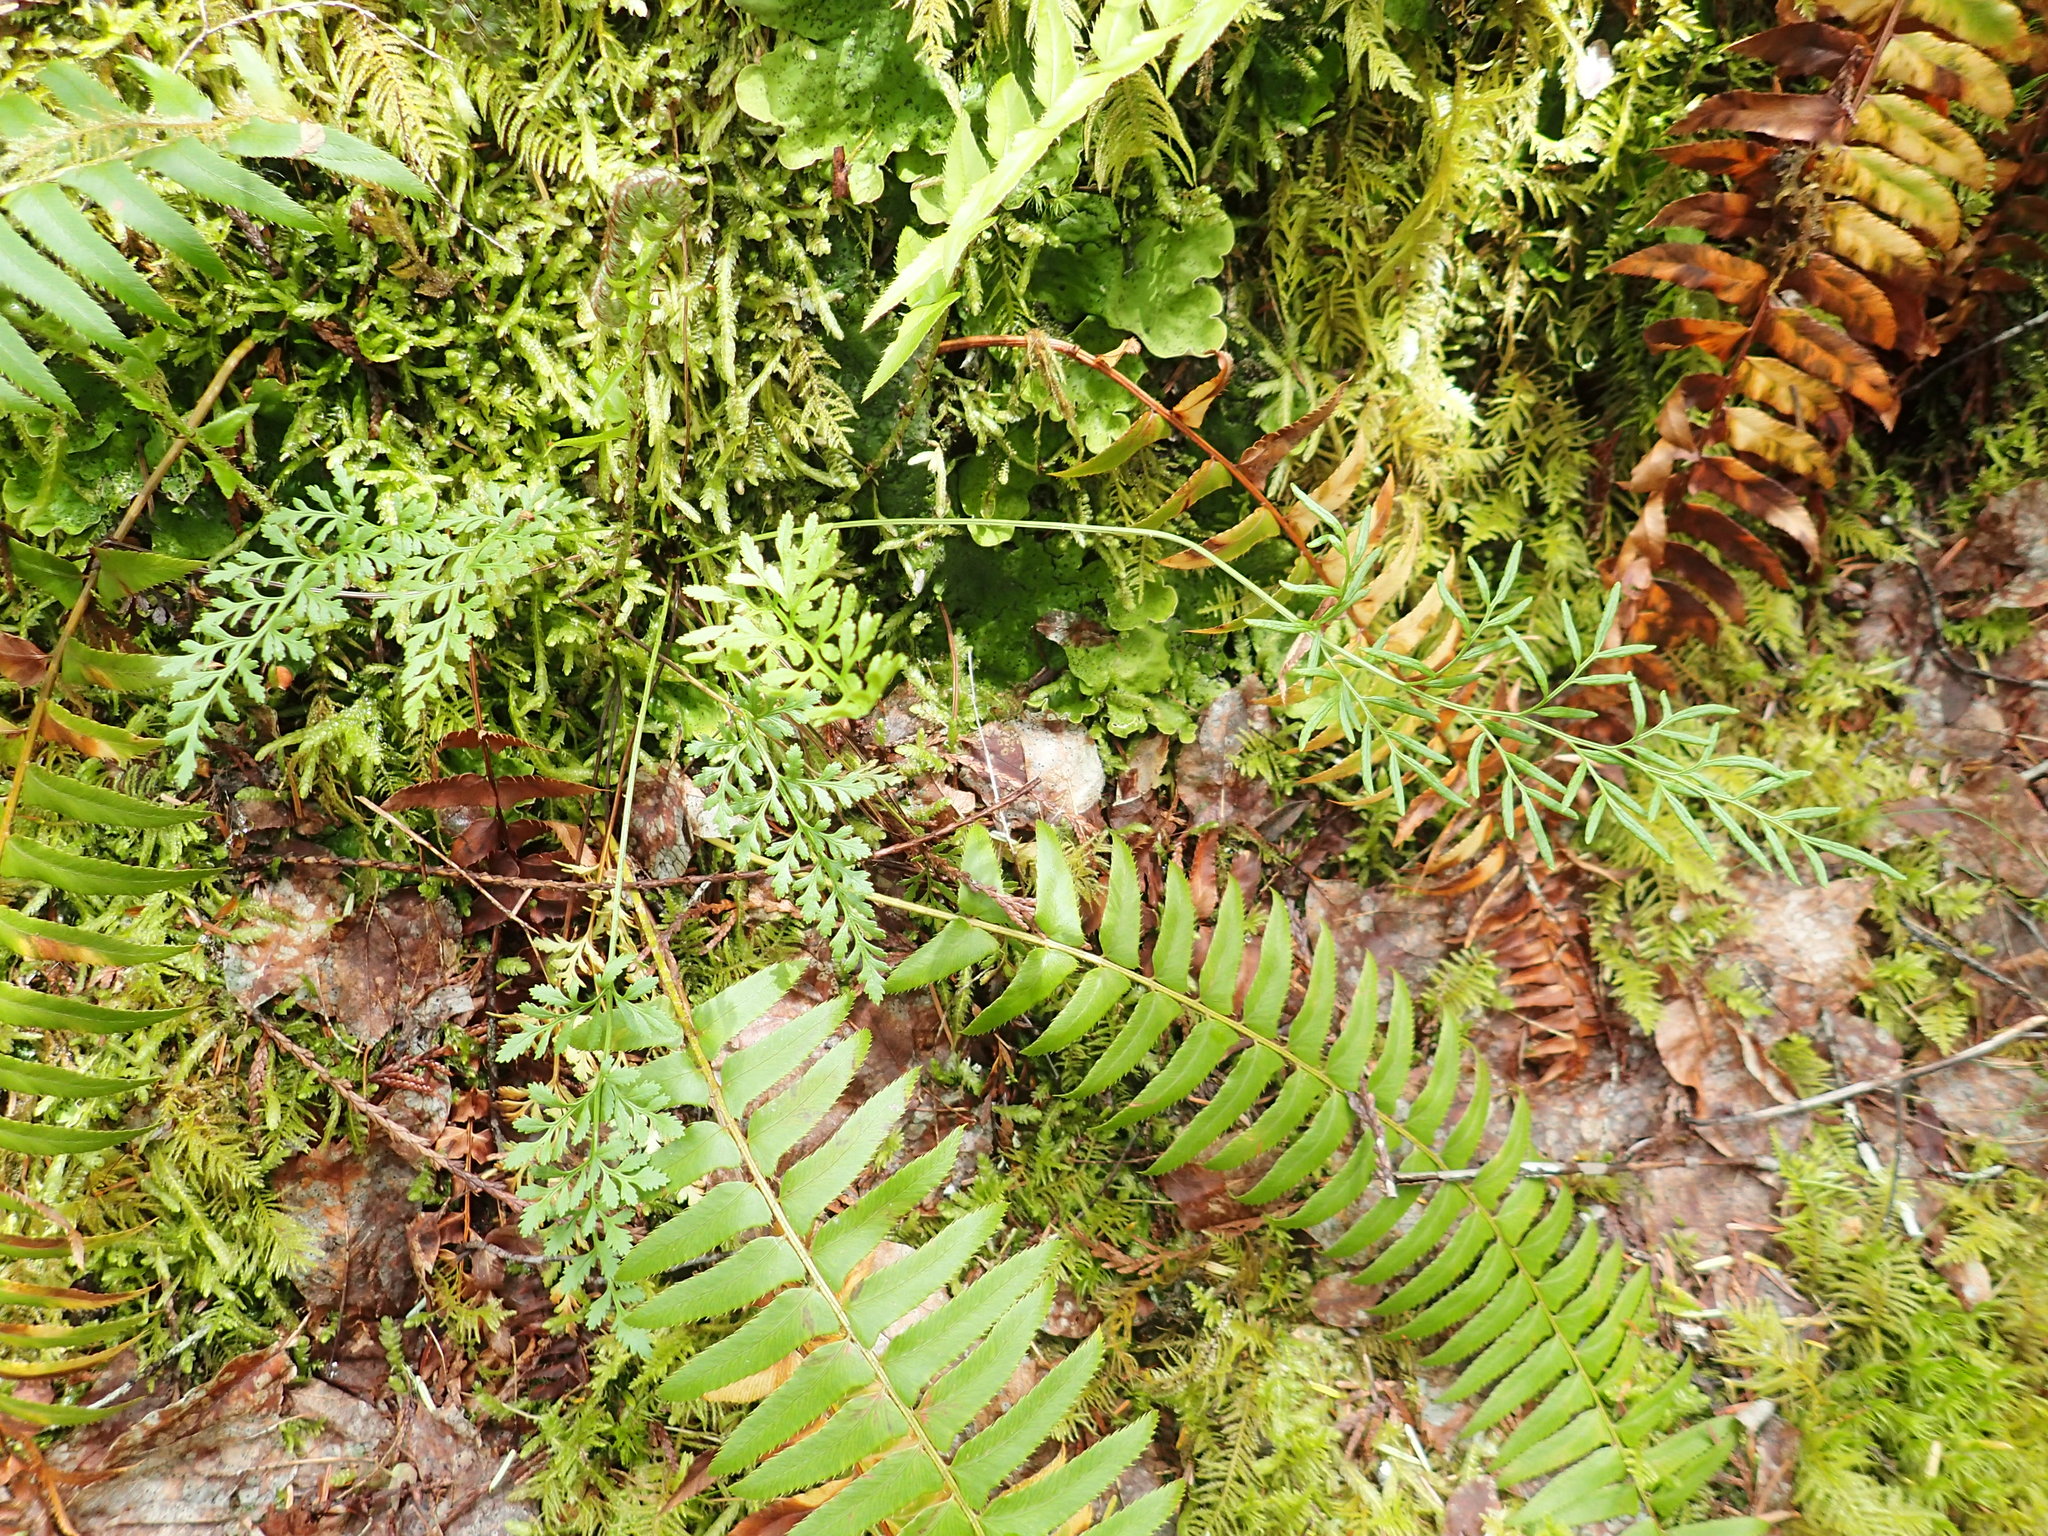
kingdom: Plantae
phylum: Tracheophyta
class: Polypodiopsida
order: Polypodiales
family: Pteridaceae
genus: Cryptogramma
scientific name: Cryptogramma acrostichoides
